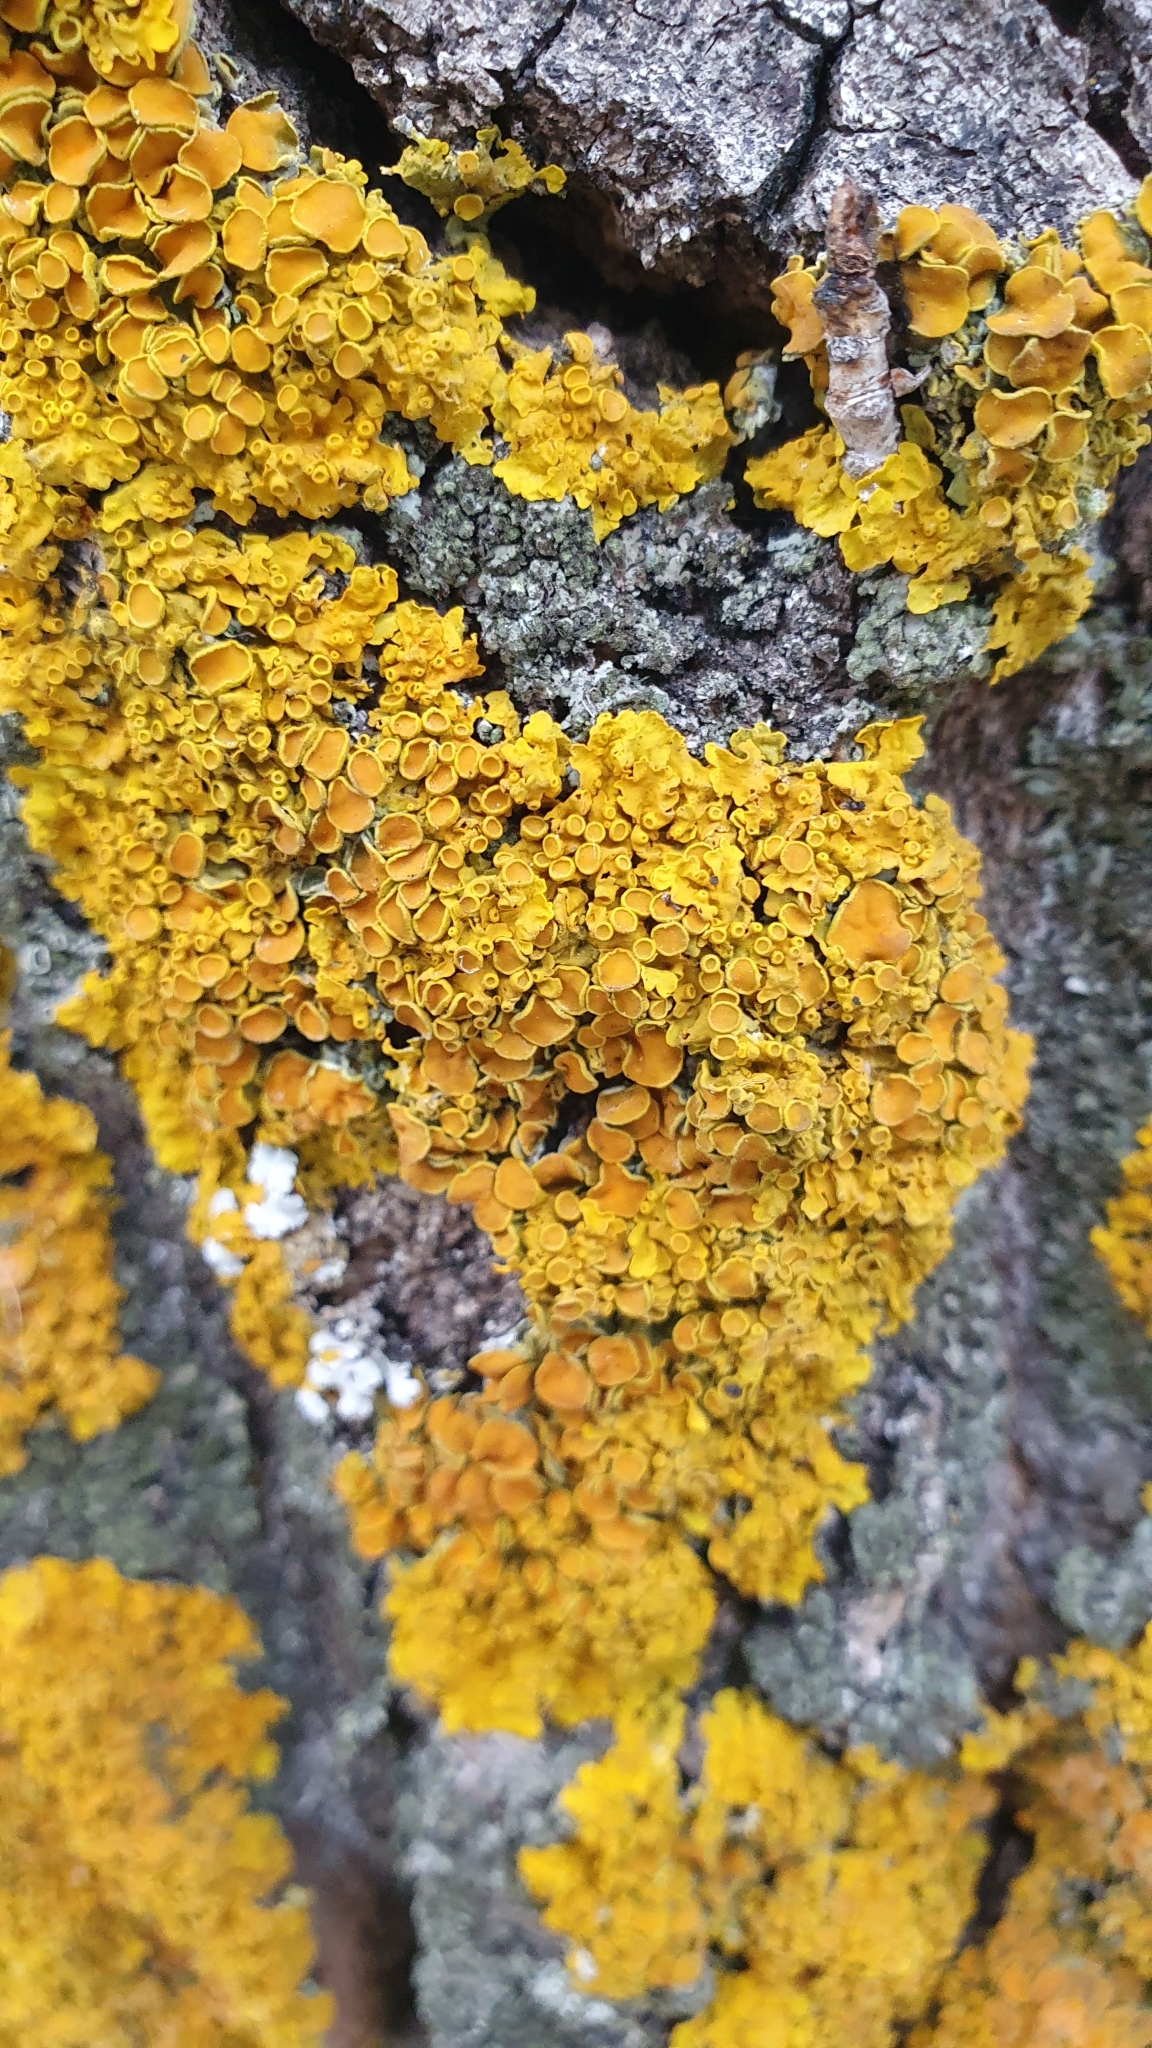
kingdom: Fungi
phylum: Ascomycota
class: Lecanoromycetes
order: Teloschistales
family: Teloschistaceae
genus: Xanthoria
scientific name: Xanthoria parietina
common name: Common orange lichen
